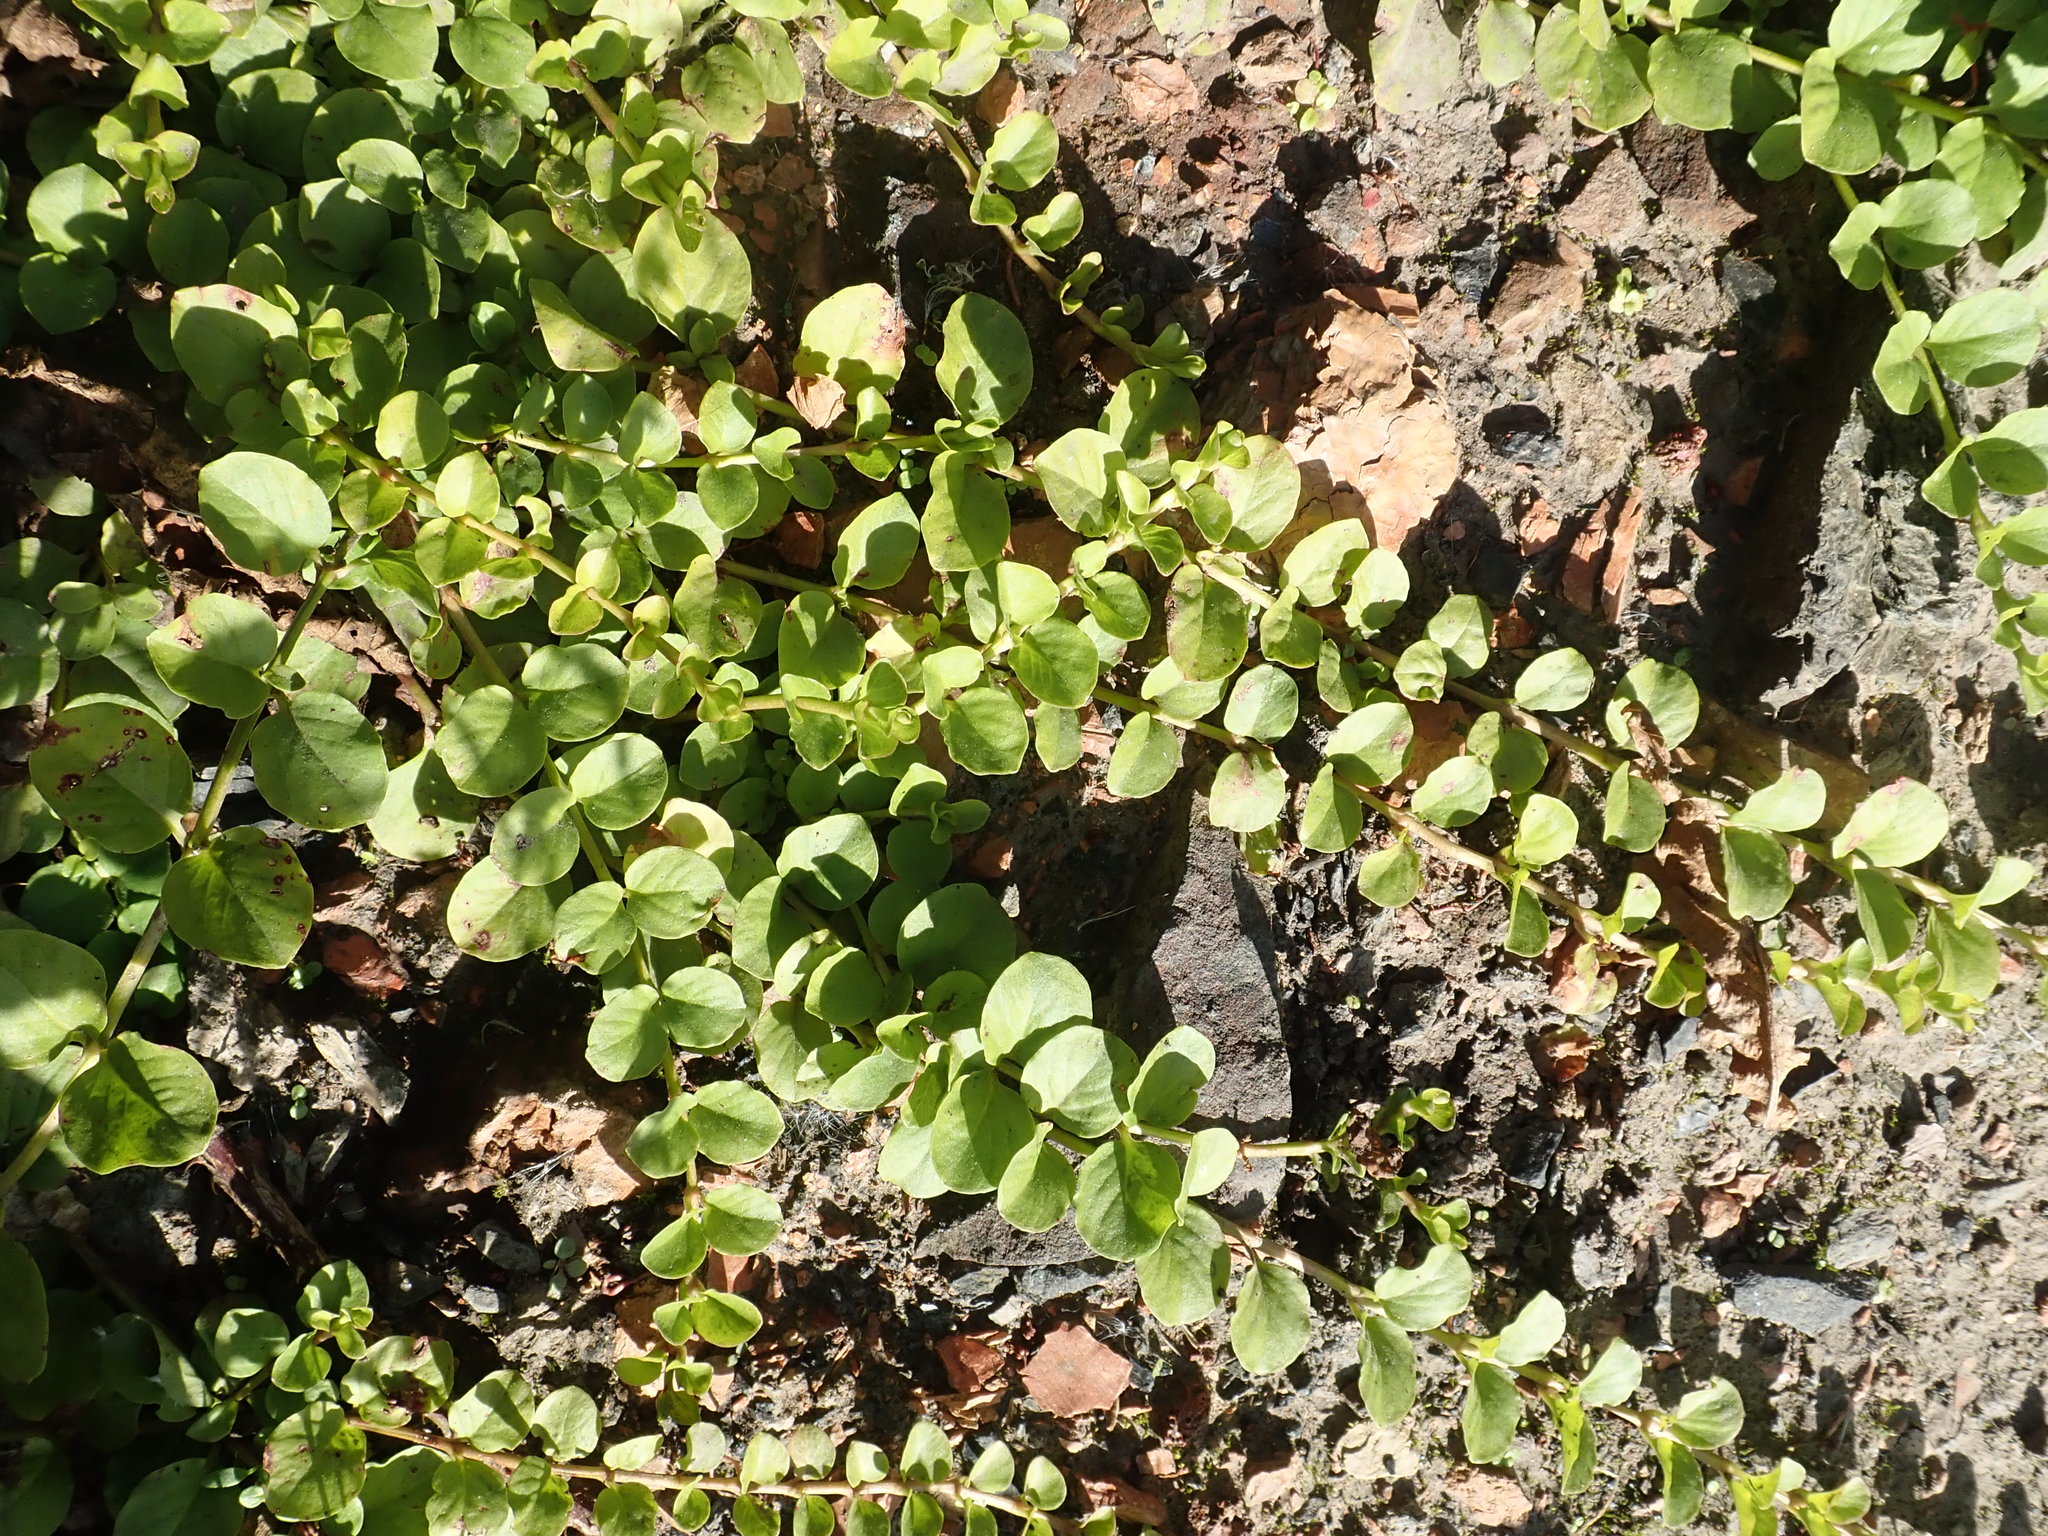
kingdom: Plantae
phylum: Tracheophyta
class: Magnoliopsida
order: Ericales
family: Primulaceae
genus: Lysimachia
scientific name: Lysimachia nummularia
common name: Moneywort
